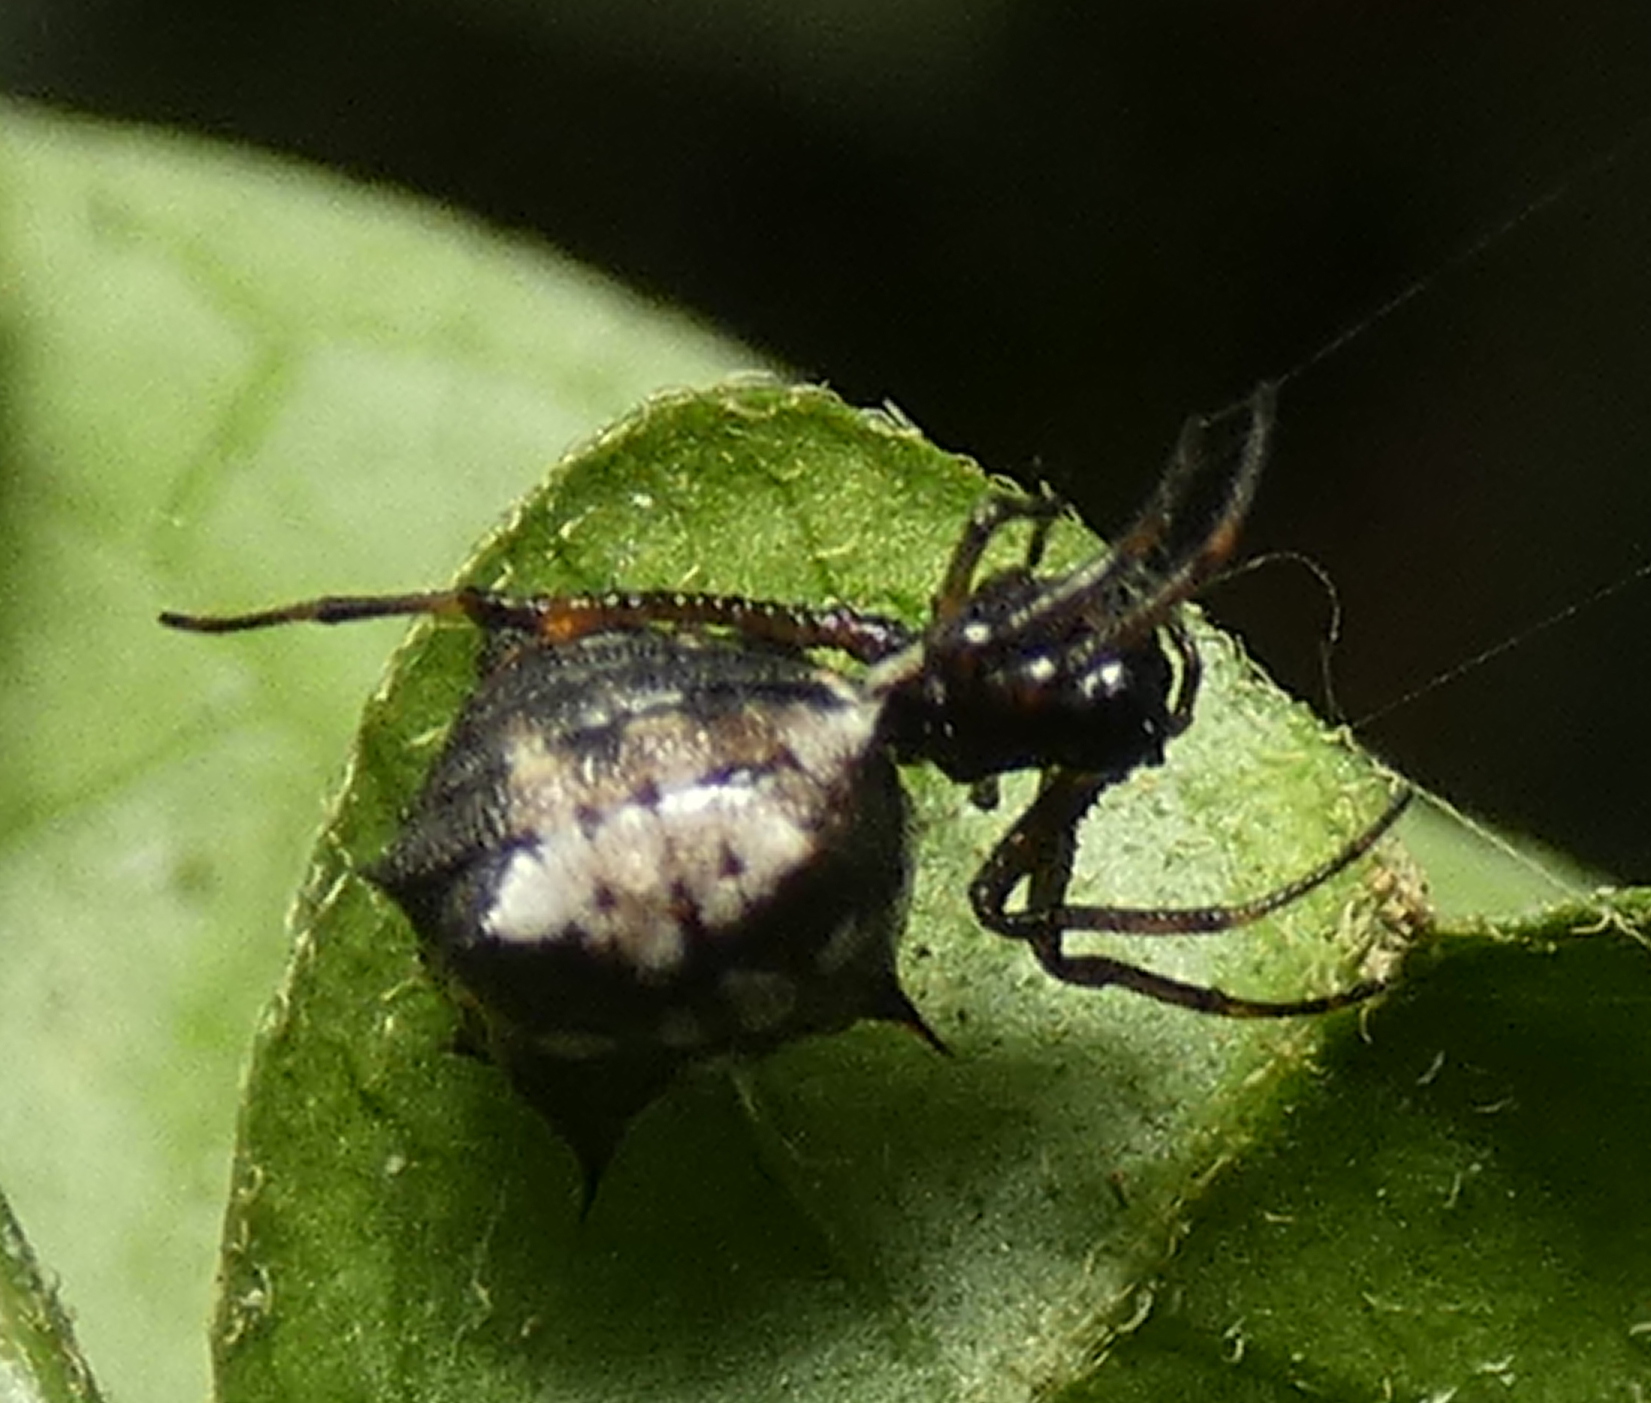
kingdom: Animalia
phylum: Arthropoda
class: Arachnida
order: Araneae
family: Araneidae
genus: Micrathena
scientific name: Micrathena picta
